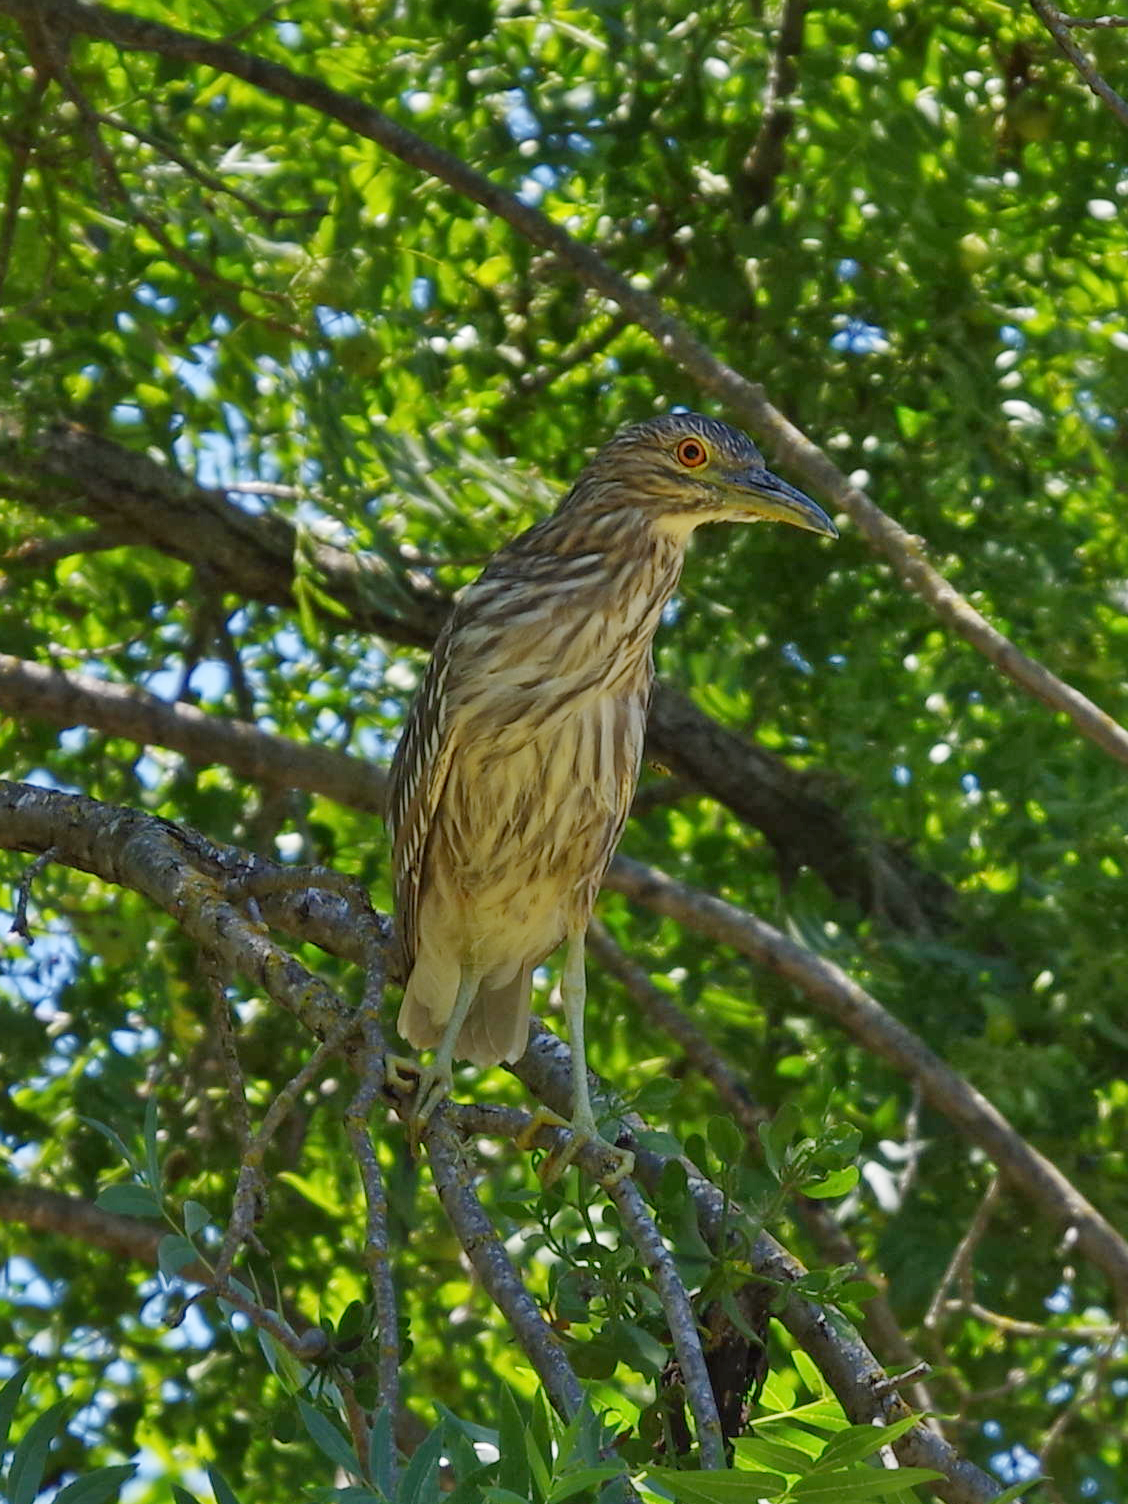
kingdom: Animalia
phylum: Chordata
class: Aves
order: Pelecaniformes
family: Ardeidae
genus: Nycticorax
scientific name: Nycticorax nycticorax
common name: Black-crowned night heron
